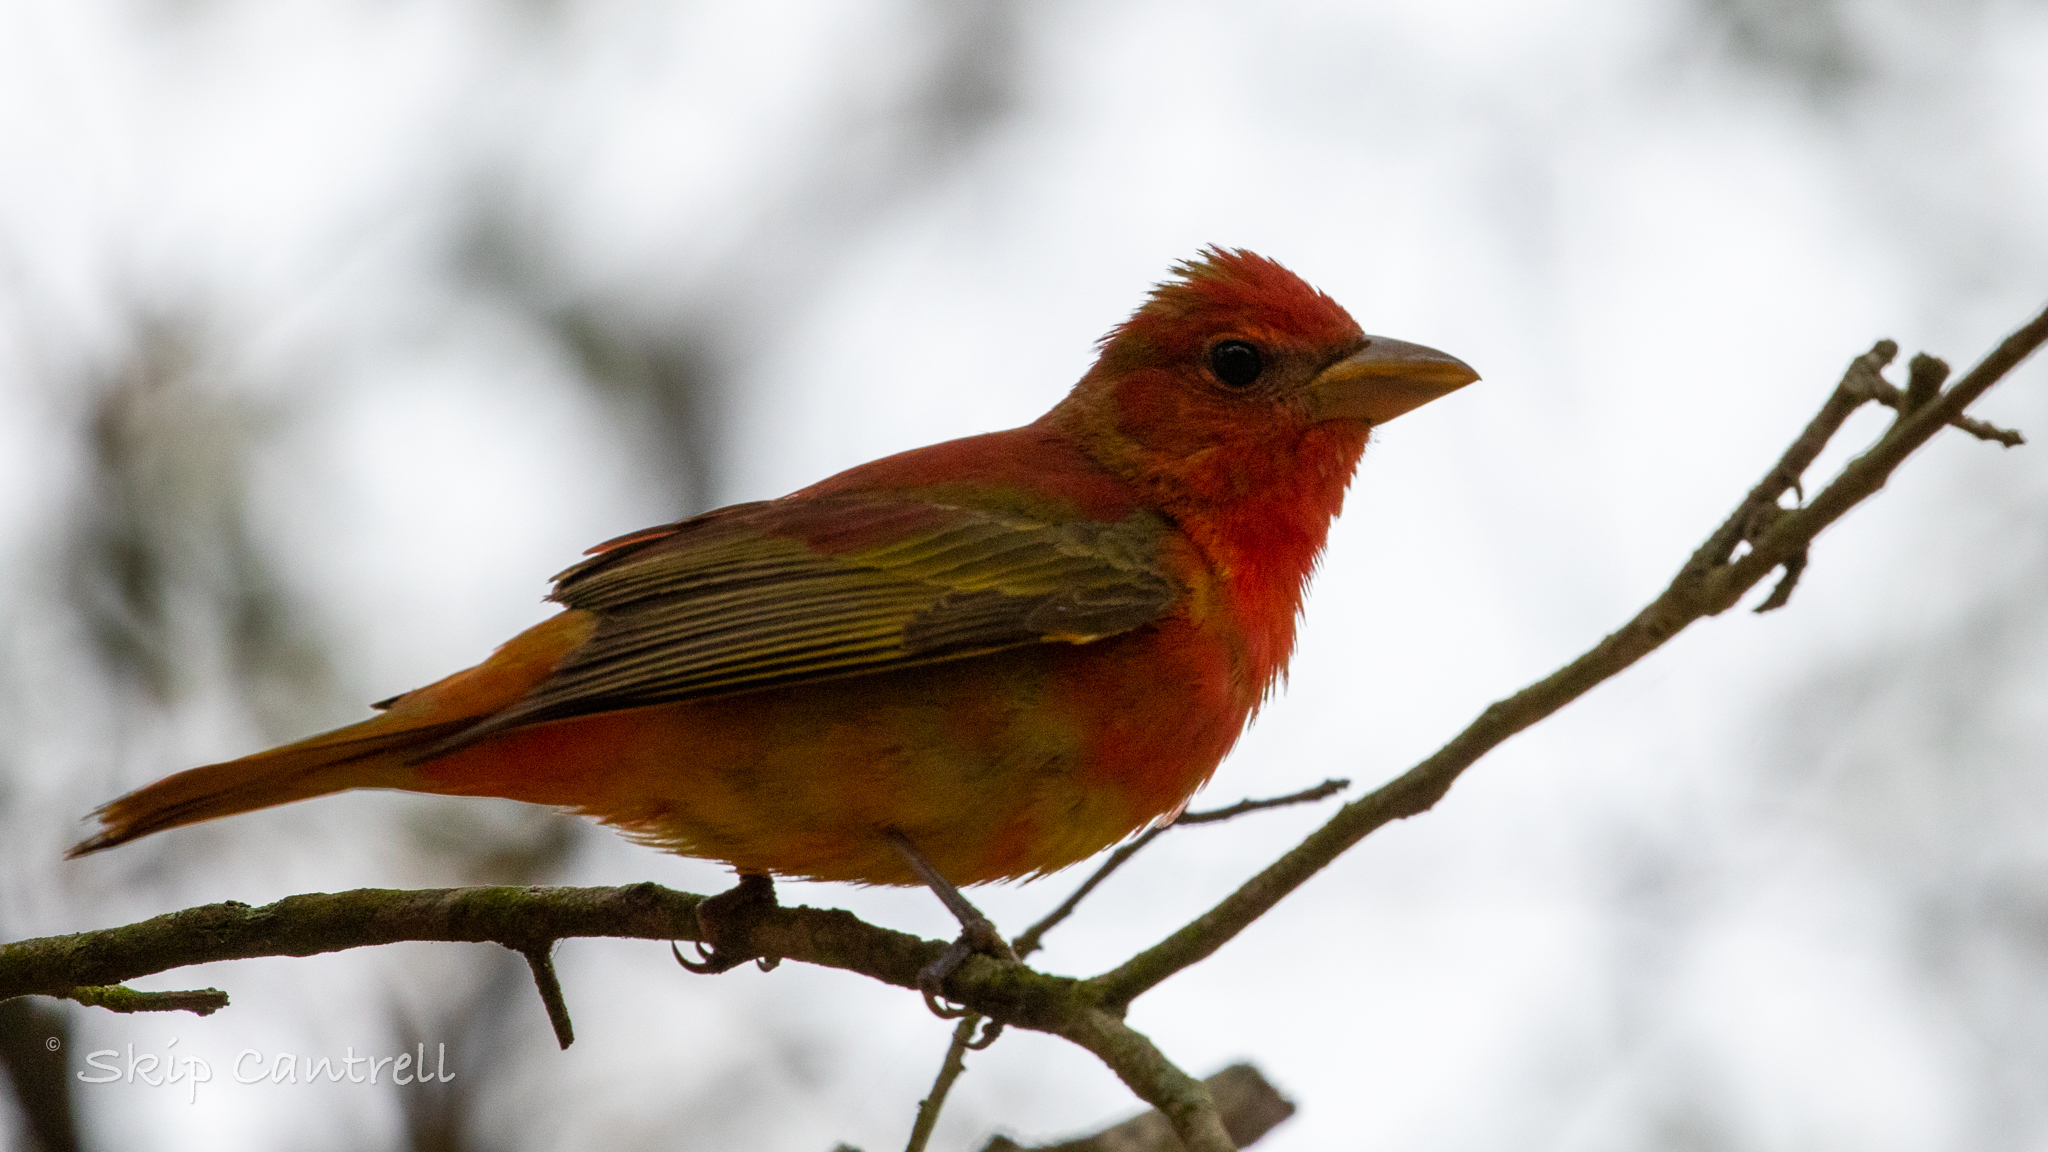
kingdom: Animalia
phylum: Chordata
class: Aves
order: Passeriformes
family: Cardinalidae
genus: Piranga
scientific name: Piranga rubra
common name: Summer tanager
